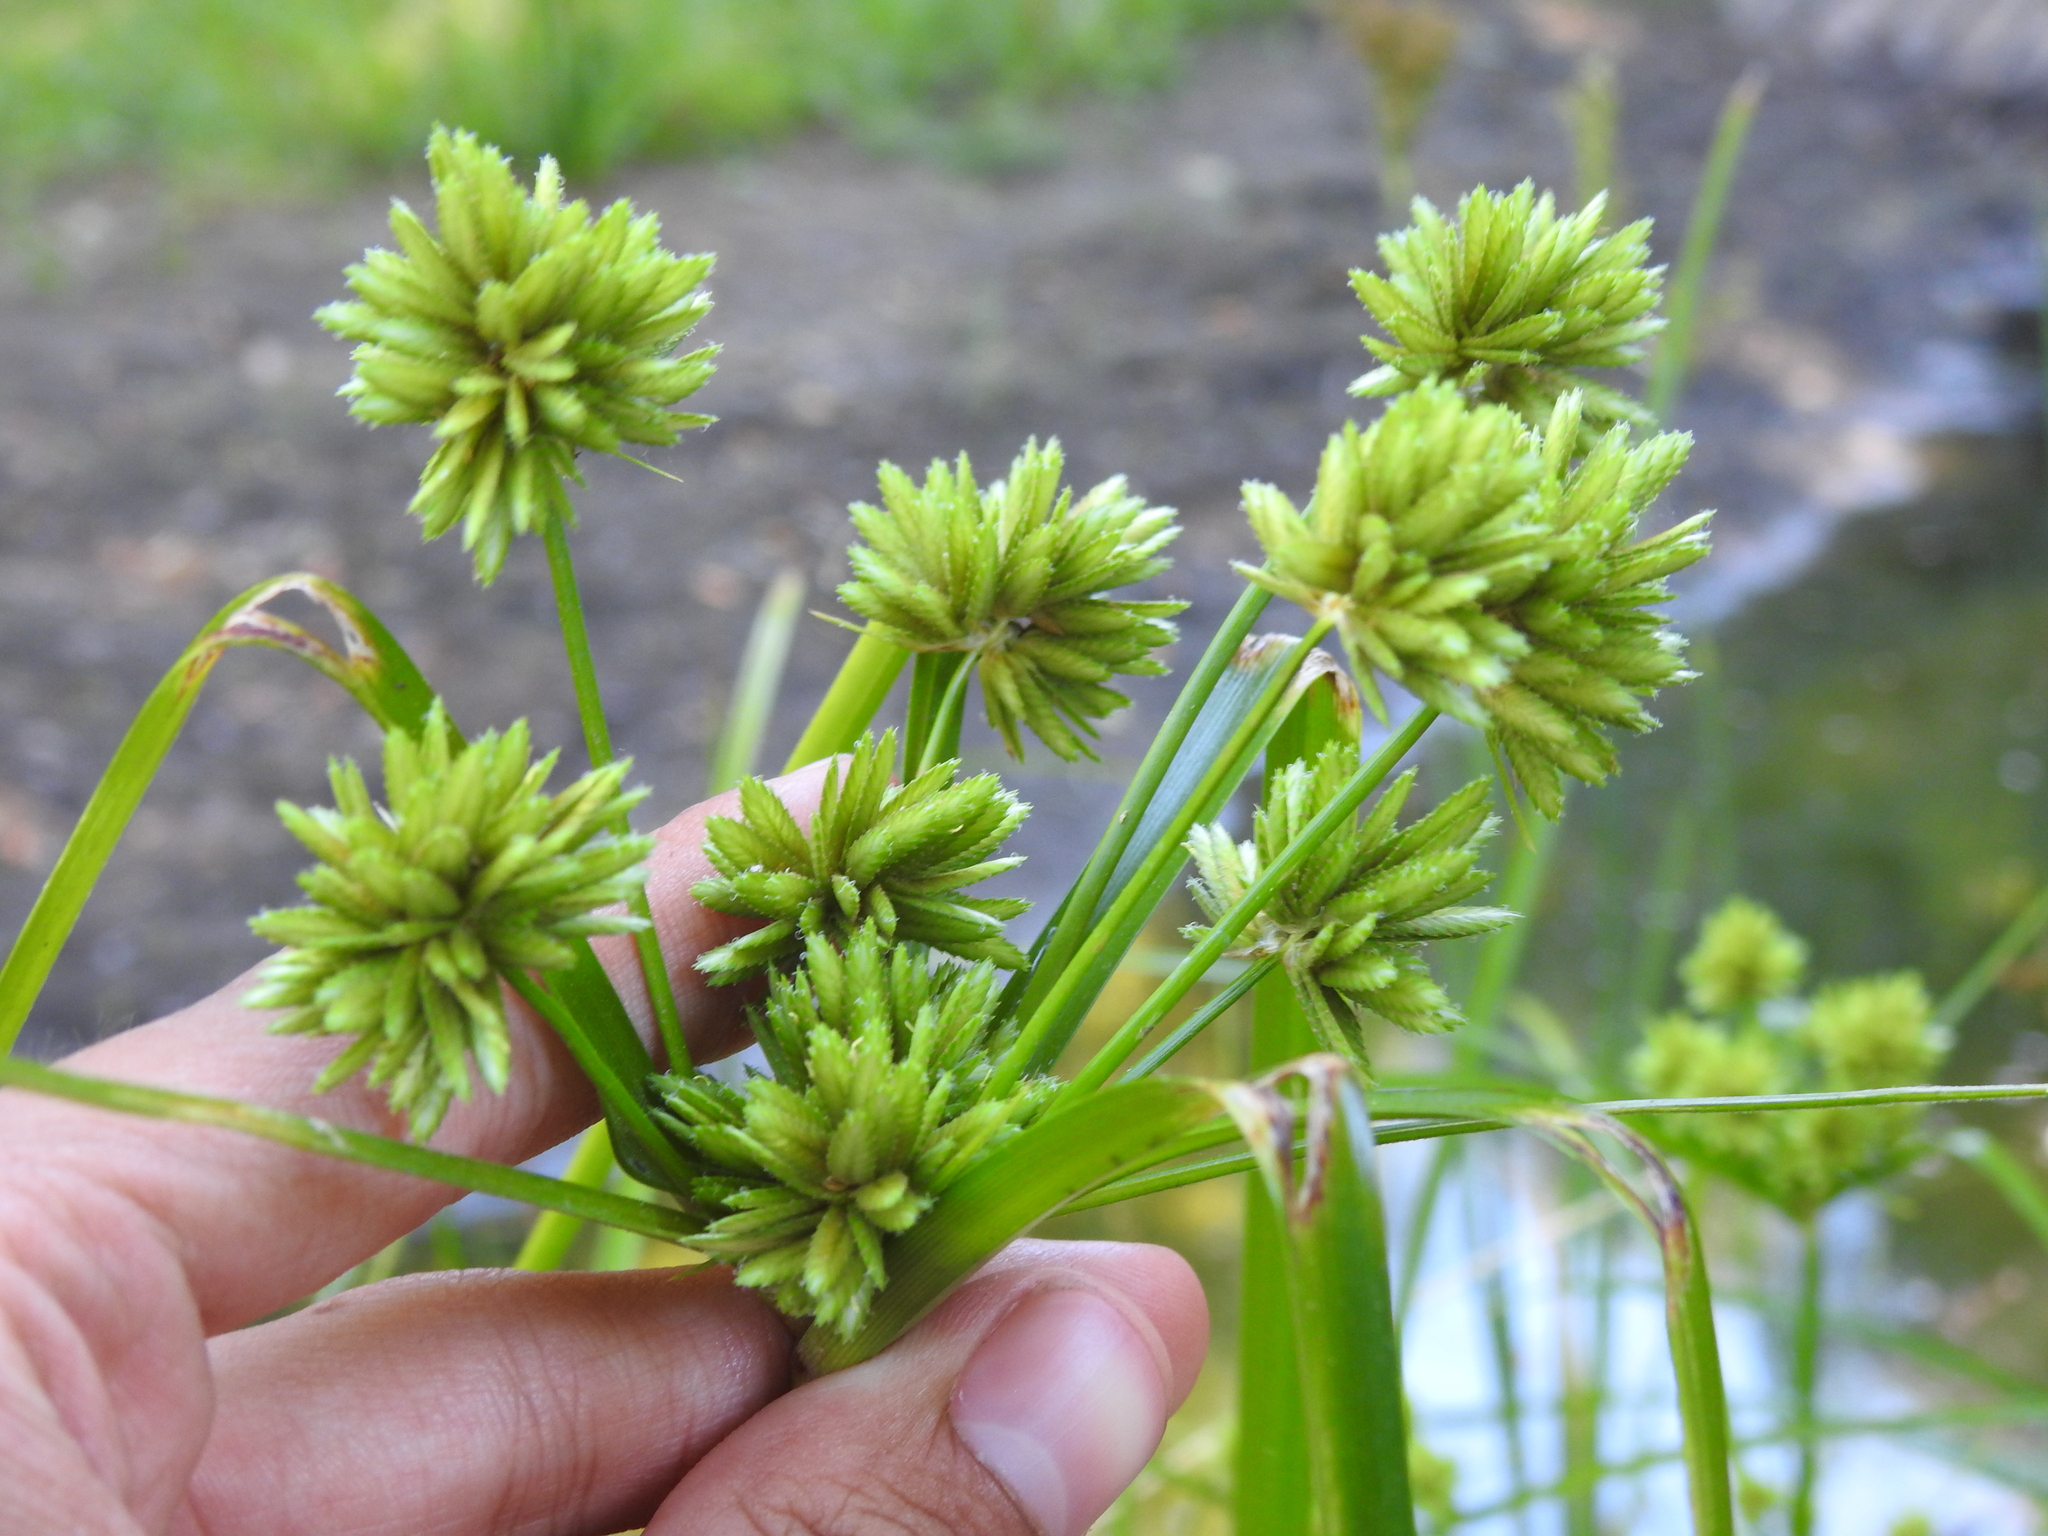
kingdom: Plantae
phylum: Tracheophyta
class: Liliopsida
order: Poales
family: Cyperaceae
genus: Cyperus
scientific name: Cyperus eragrostis
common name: Tall flatsedge
